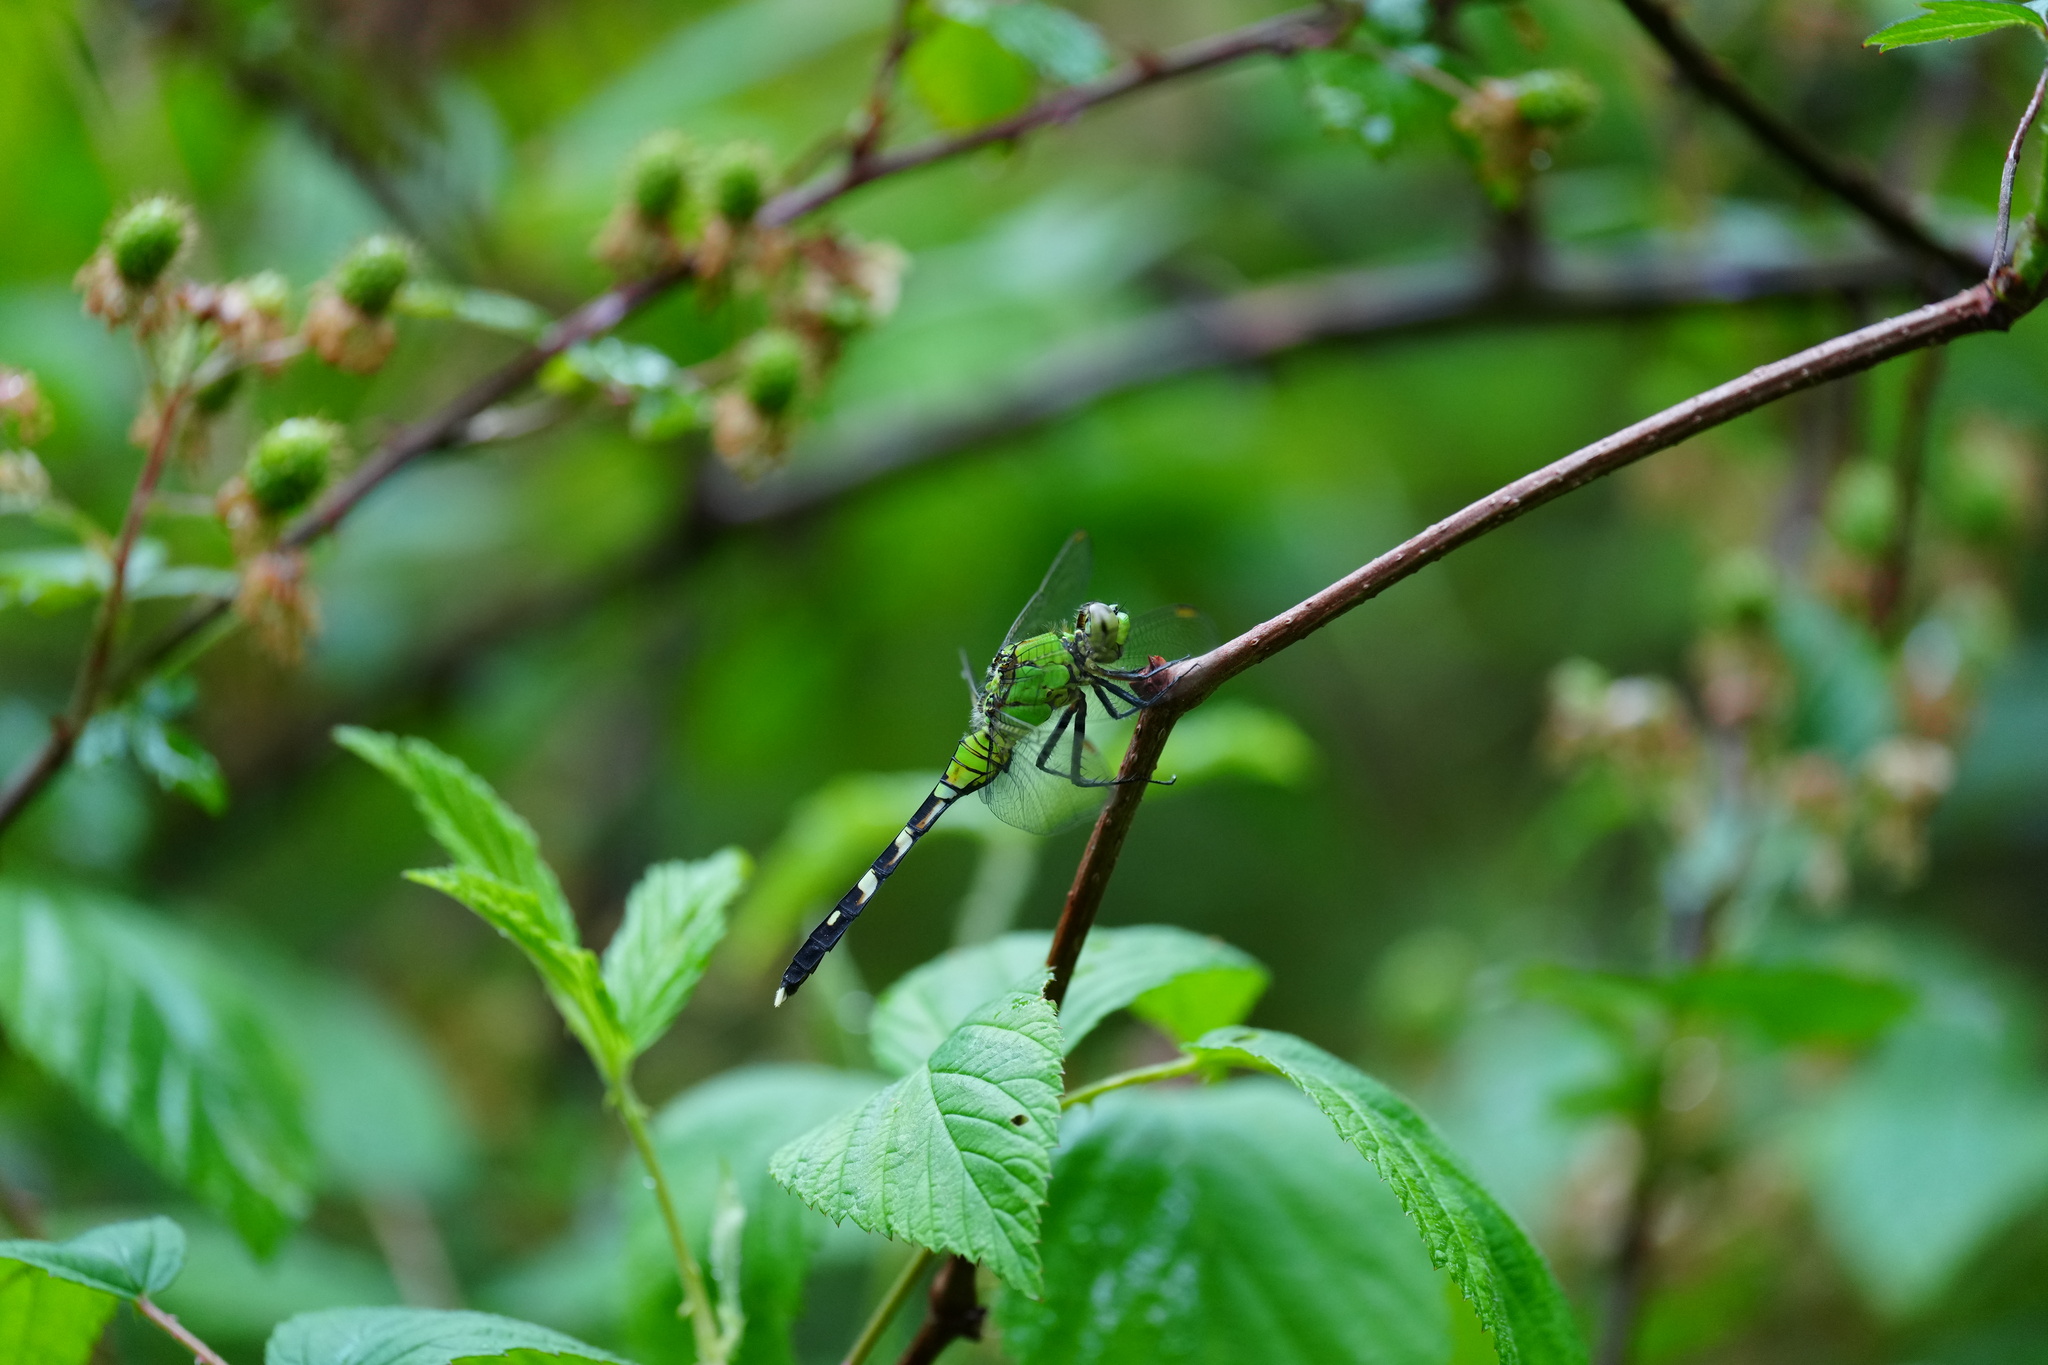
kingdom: Animalia
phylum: Arthropoda
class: Insecta
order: Odonata
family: Libellulidae
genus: Erythemis
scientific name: Erythemis simplicicollis
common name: Eastern pondhawk
